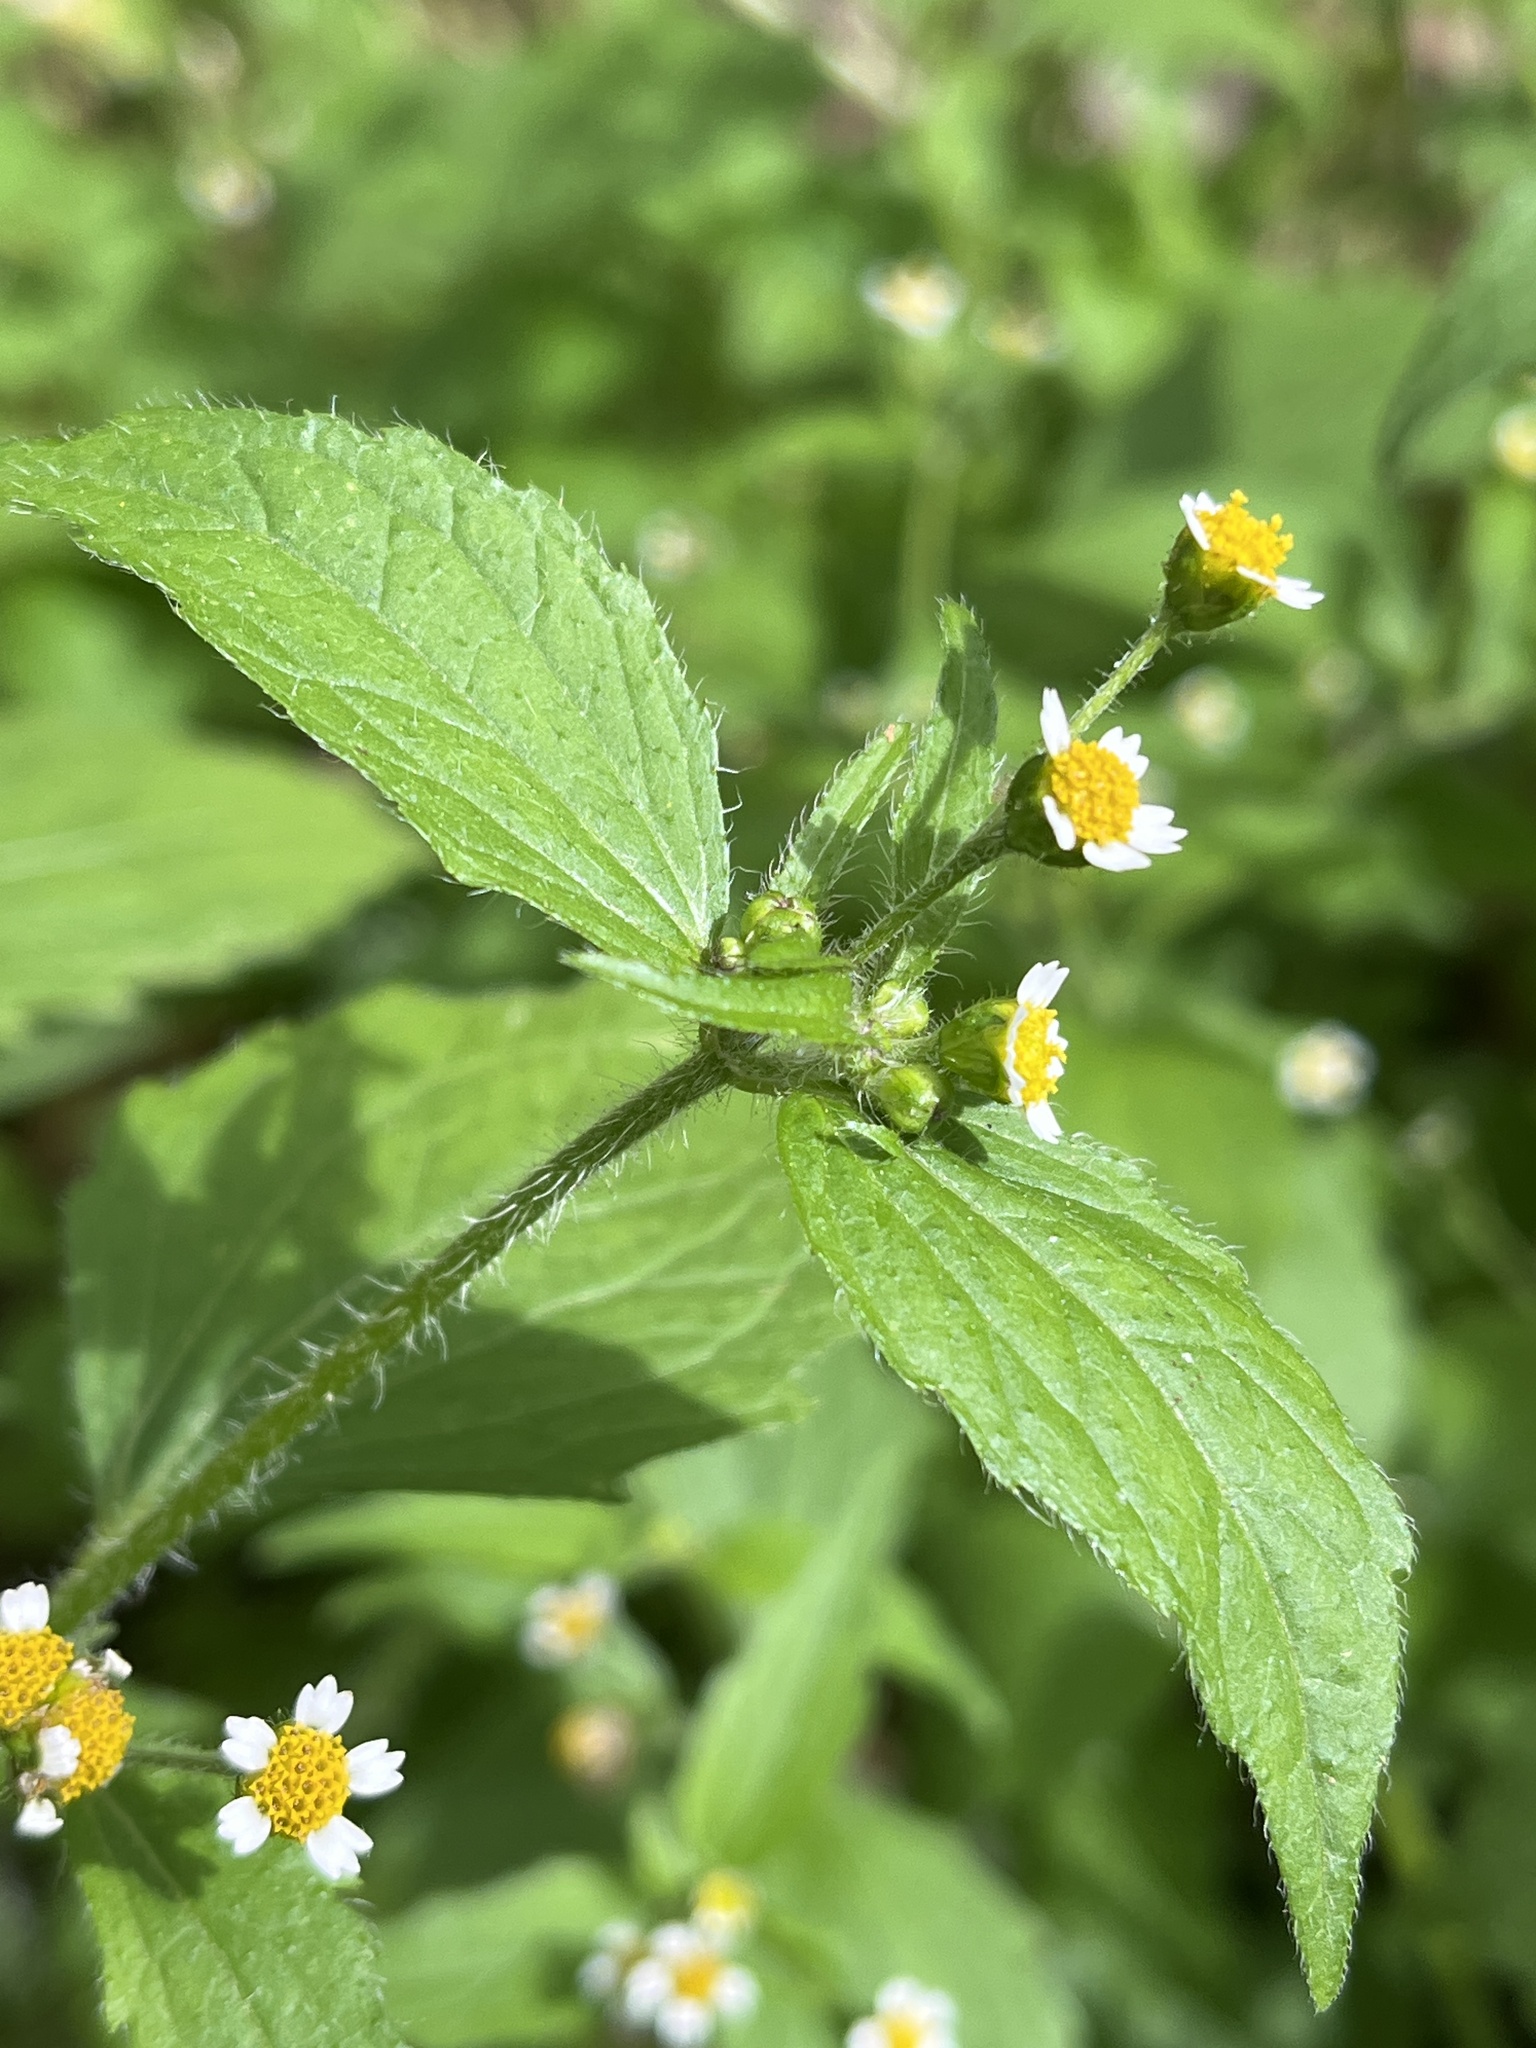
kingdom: Plantae
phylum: Tracheophyta
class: Magnoliopsida
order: Asterales
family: Asteraceae
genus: Galinsoga
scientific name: Galinsoga quadriradiata
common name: Shaggy soldier
